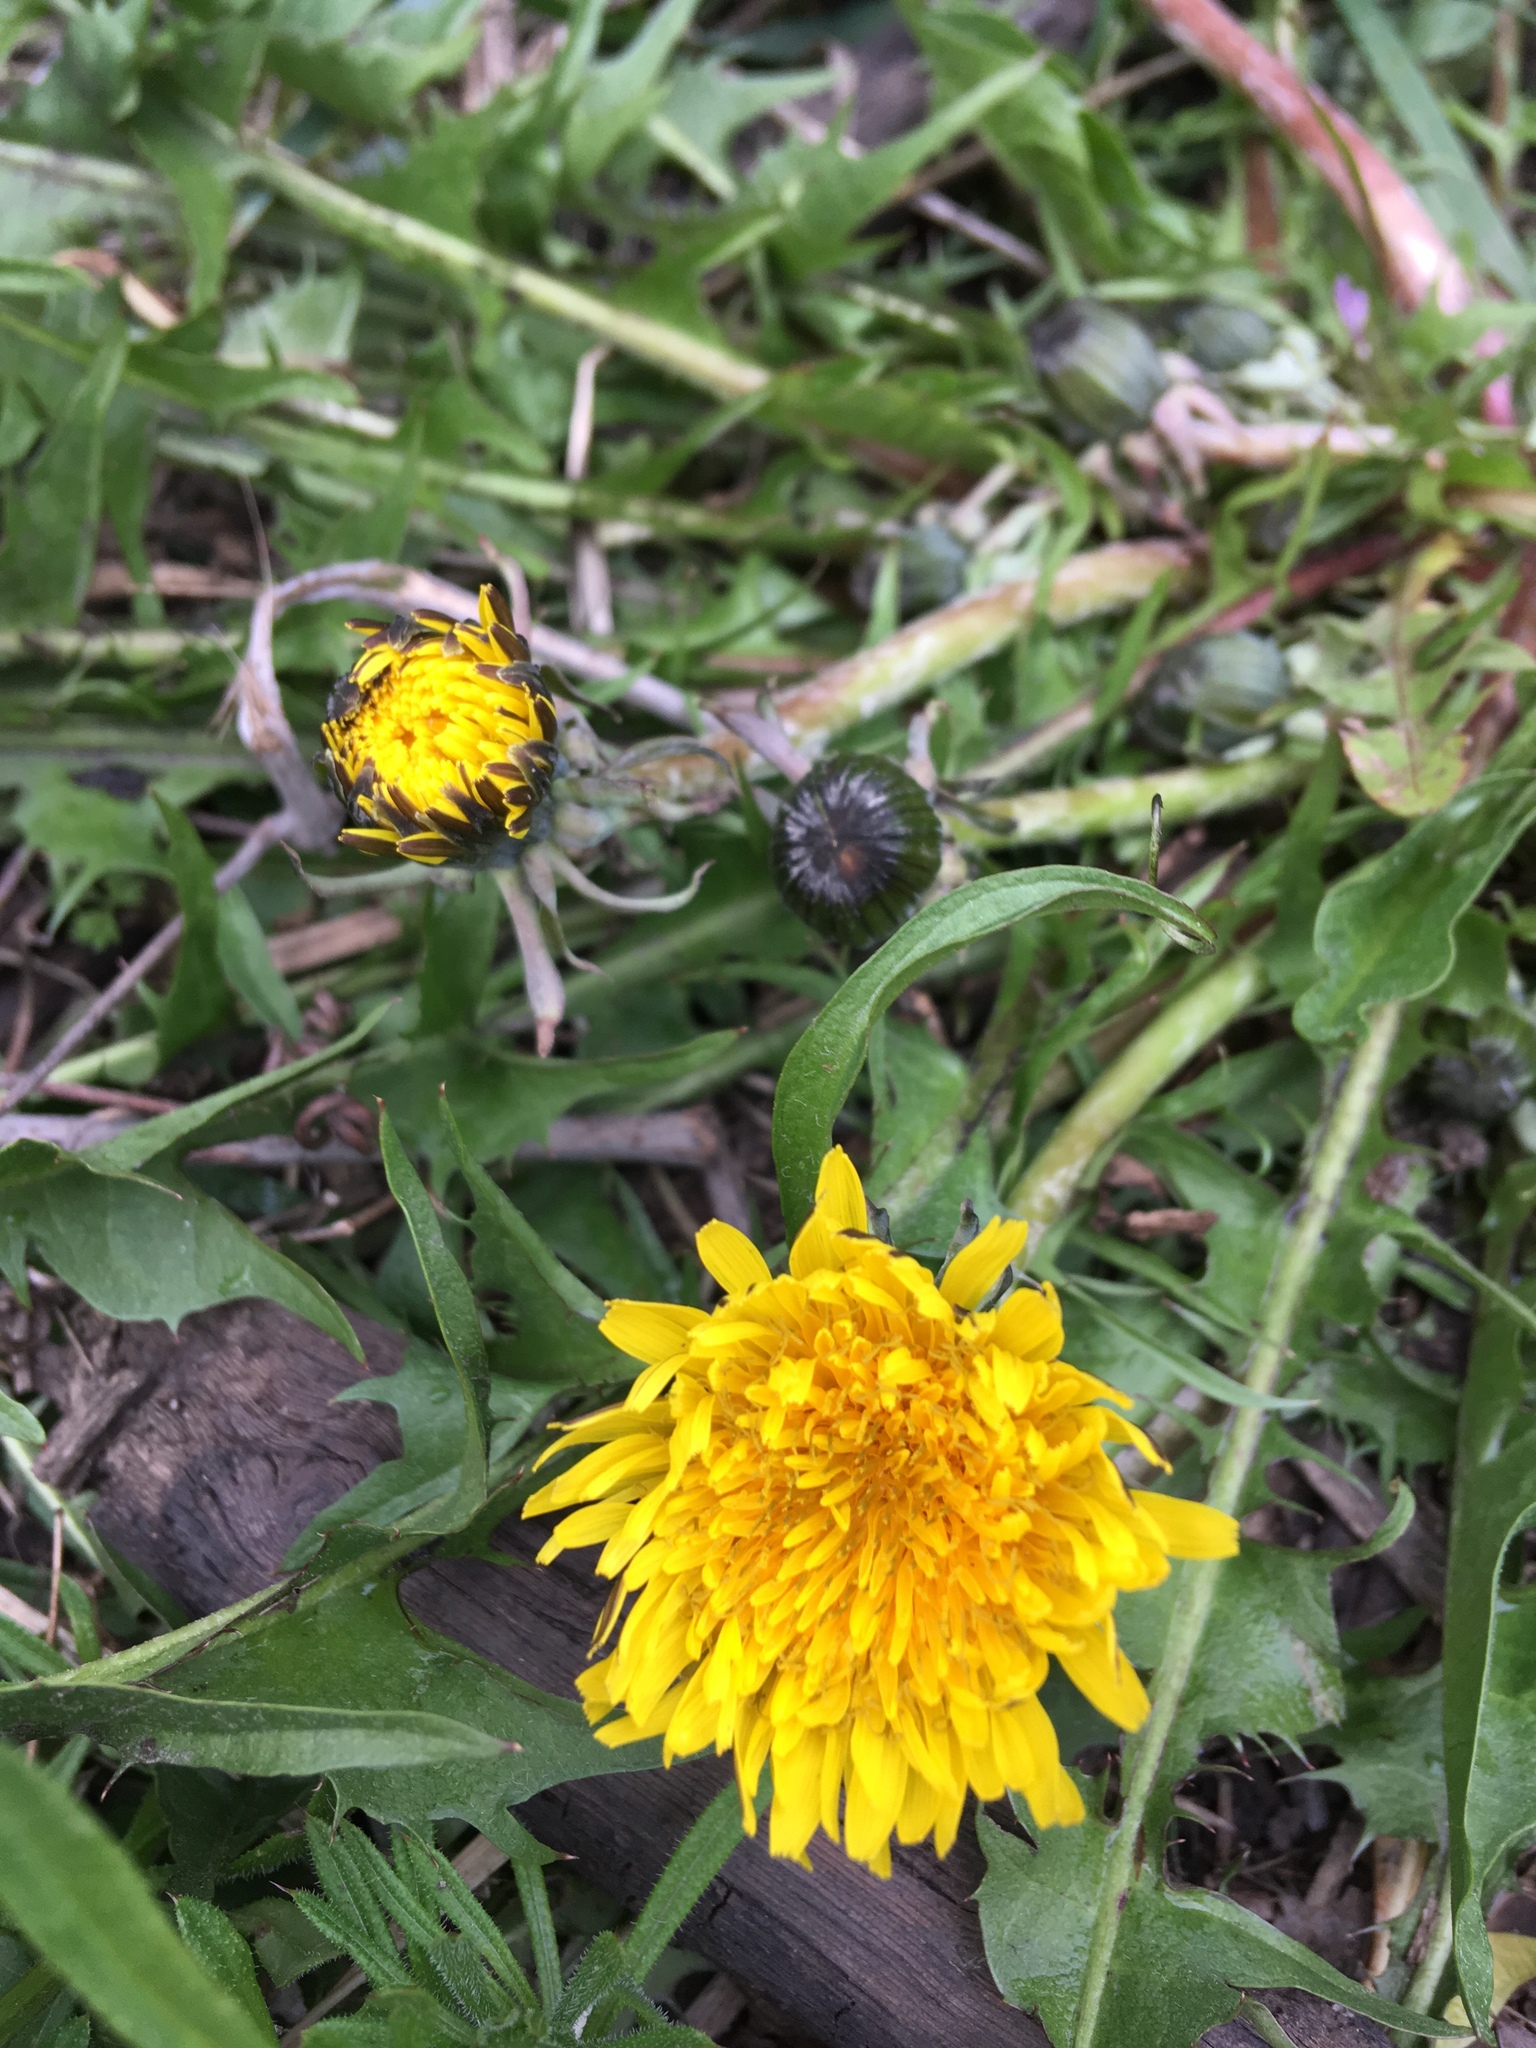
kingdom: Plantae
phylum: Tracheophyta
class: Magnoliopsida
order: Asterales
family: Asteraceae
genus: Taraxacum
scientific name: Taraxacum officinale
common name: Common dandelion
